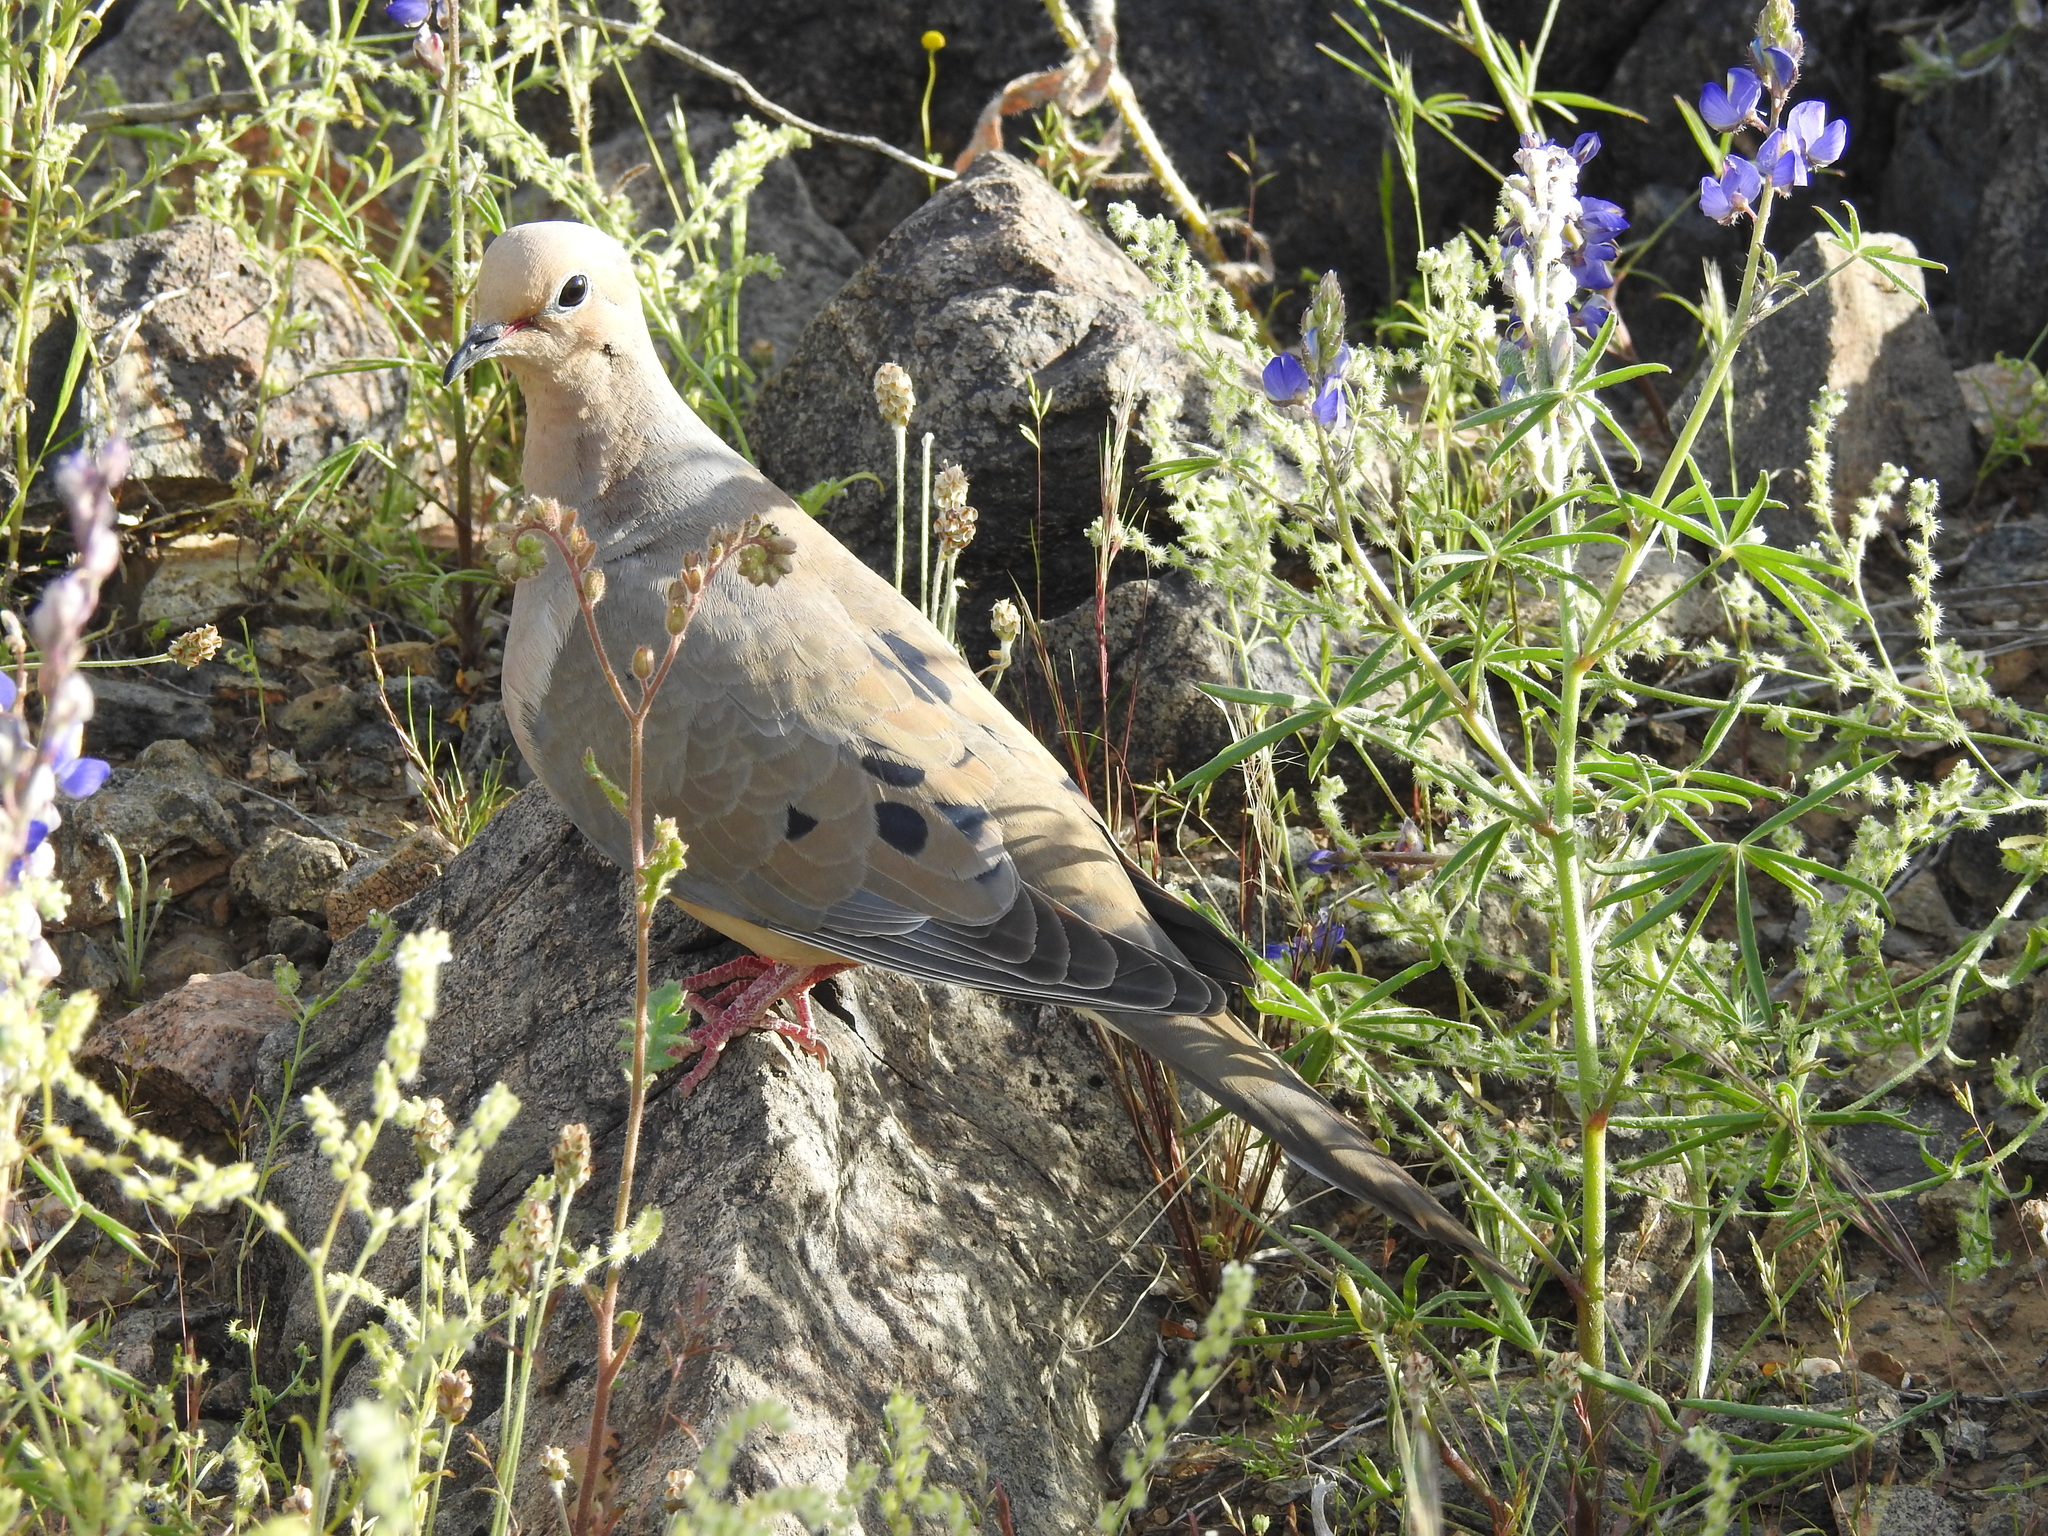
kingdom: Animalia
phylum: Chordata
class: Aves
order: Columbiformes
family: Columbidae
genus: Zenaida
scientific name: Zenaida macroura
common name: Mourning dove
